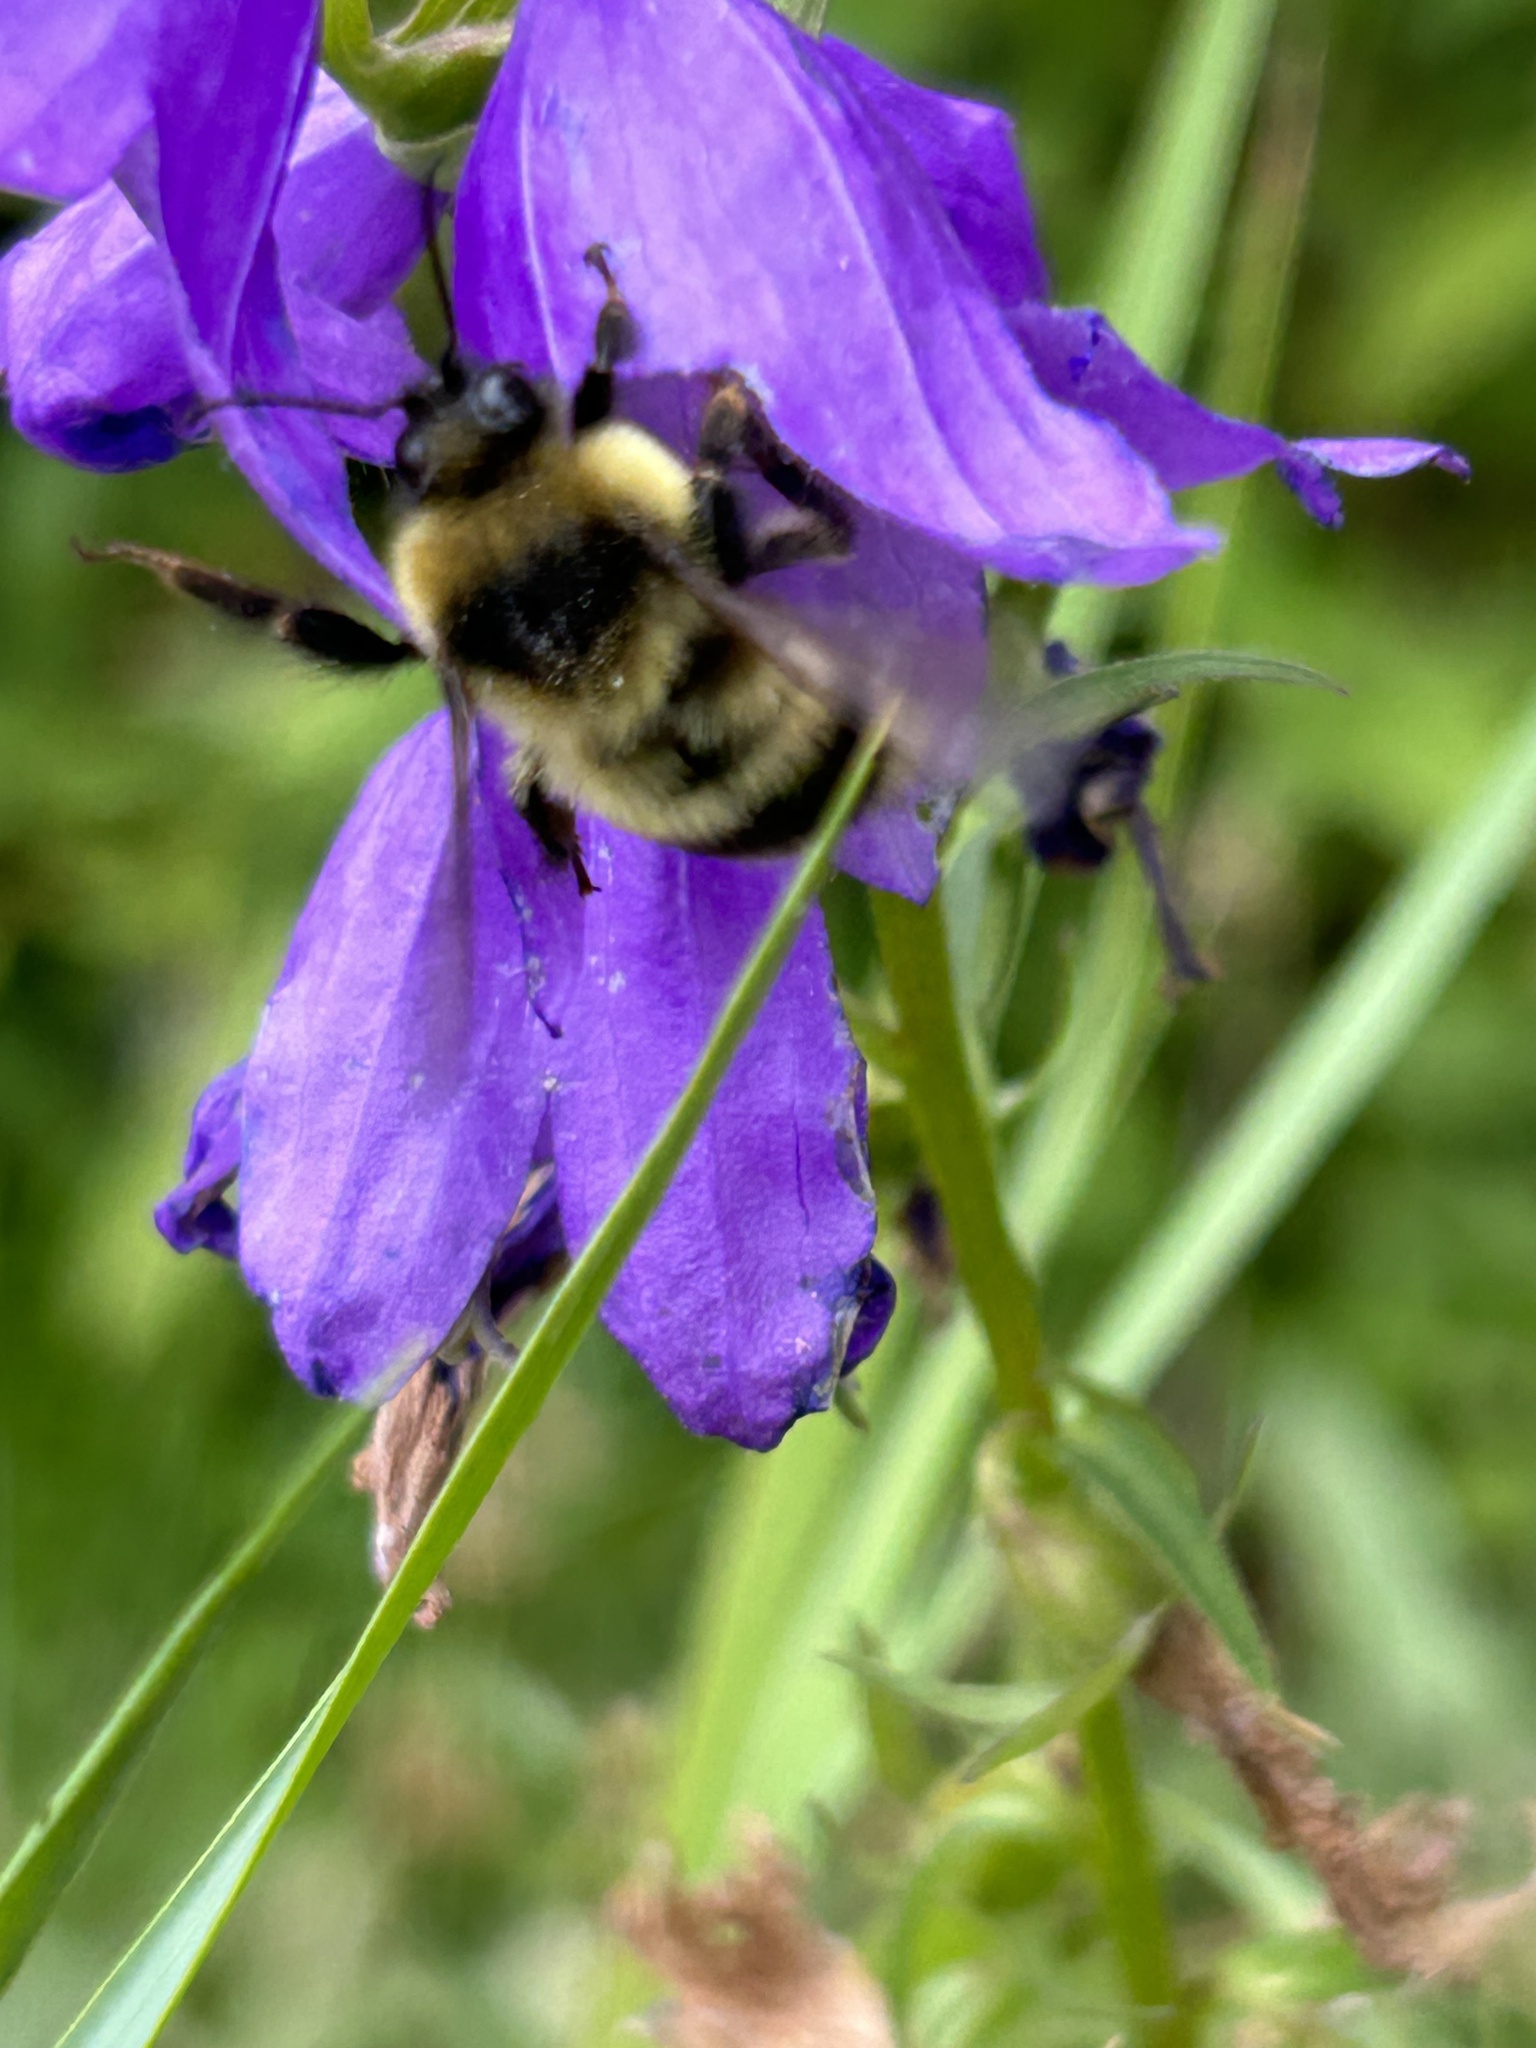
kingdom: Animalia
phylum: Arthropoda
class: Insecta
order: Hymenoptera
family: Apidae
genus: Bombus
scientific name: Bombus rufocinctus
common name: Red-belted bumble bee
